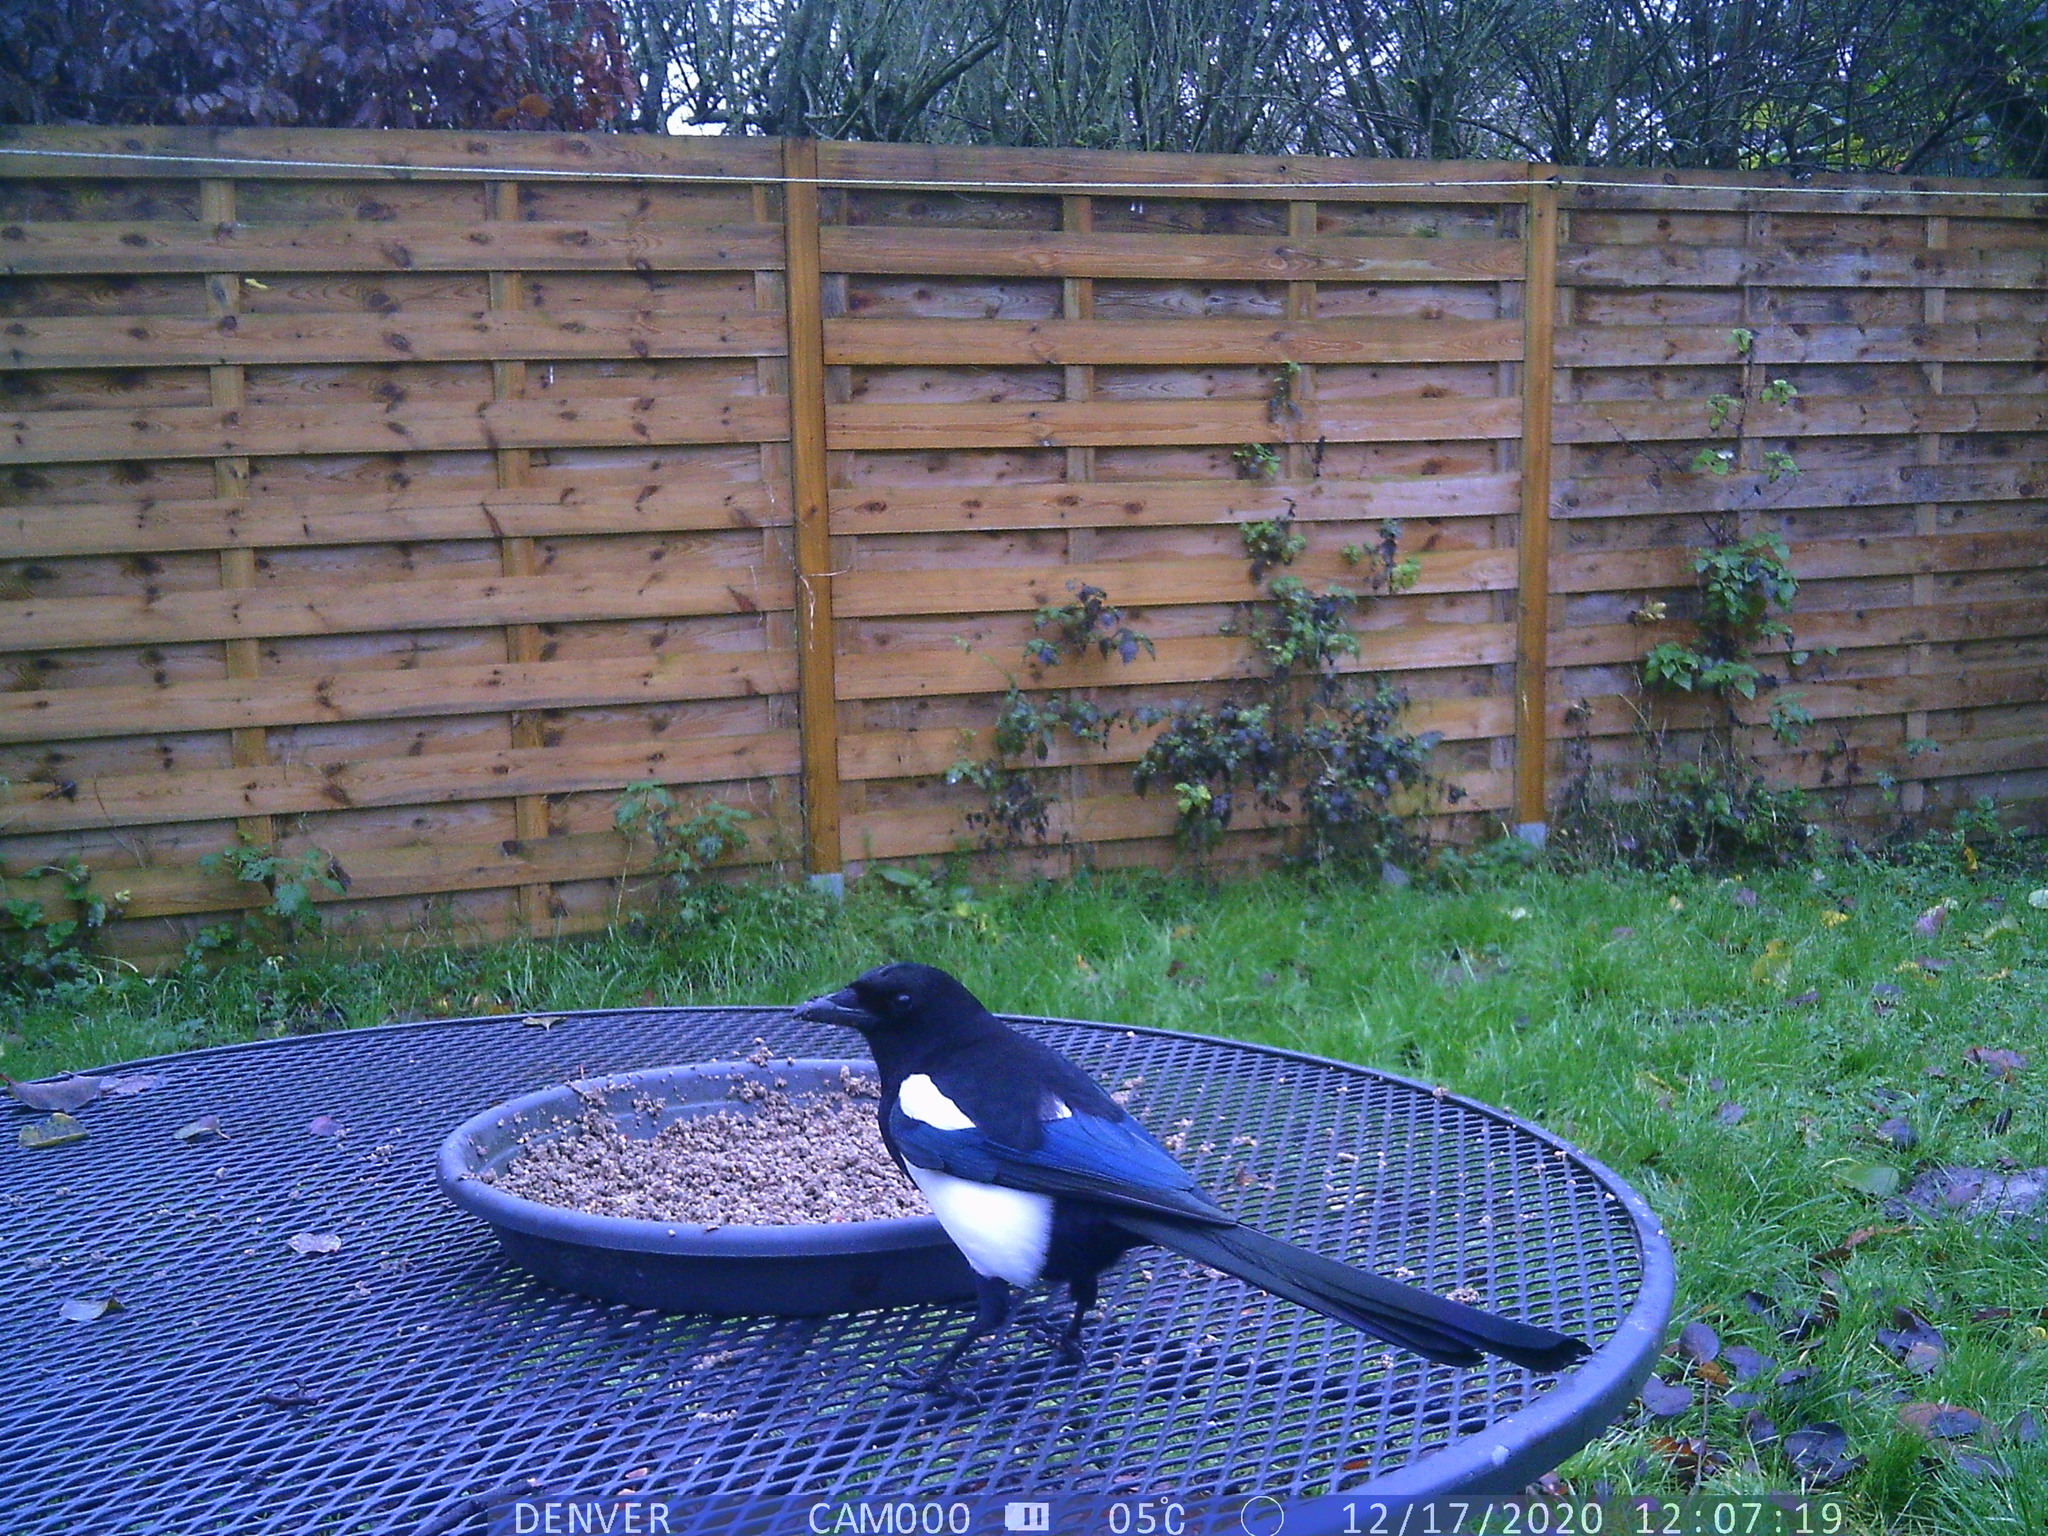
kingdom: Animalia
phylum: Chordata
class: Aves
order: Passeriformes
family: Corvidae
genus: Pica
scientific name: Pica pica
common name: Eurasian magpie
